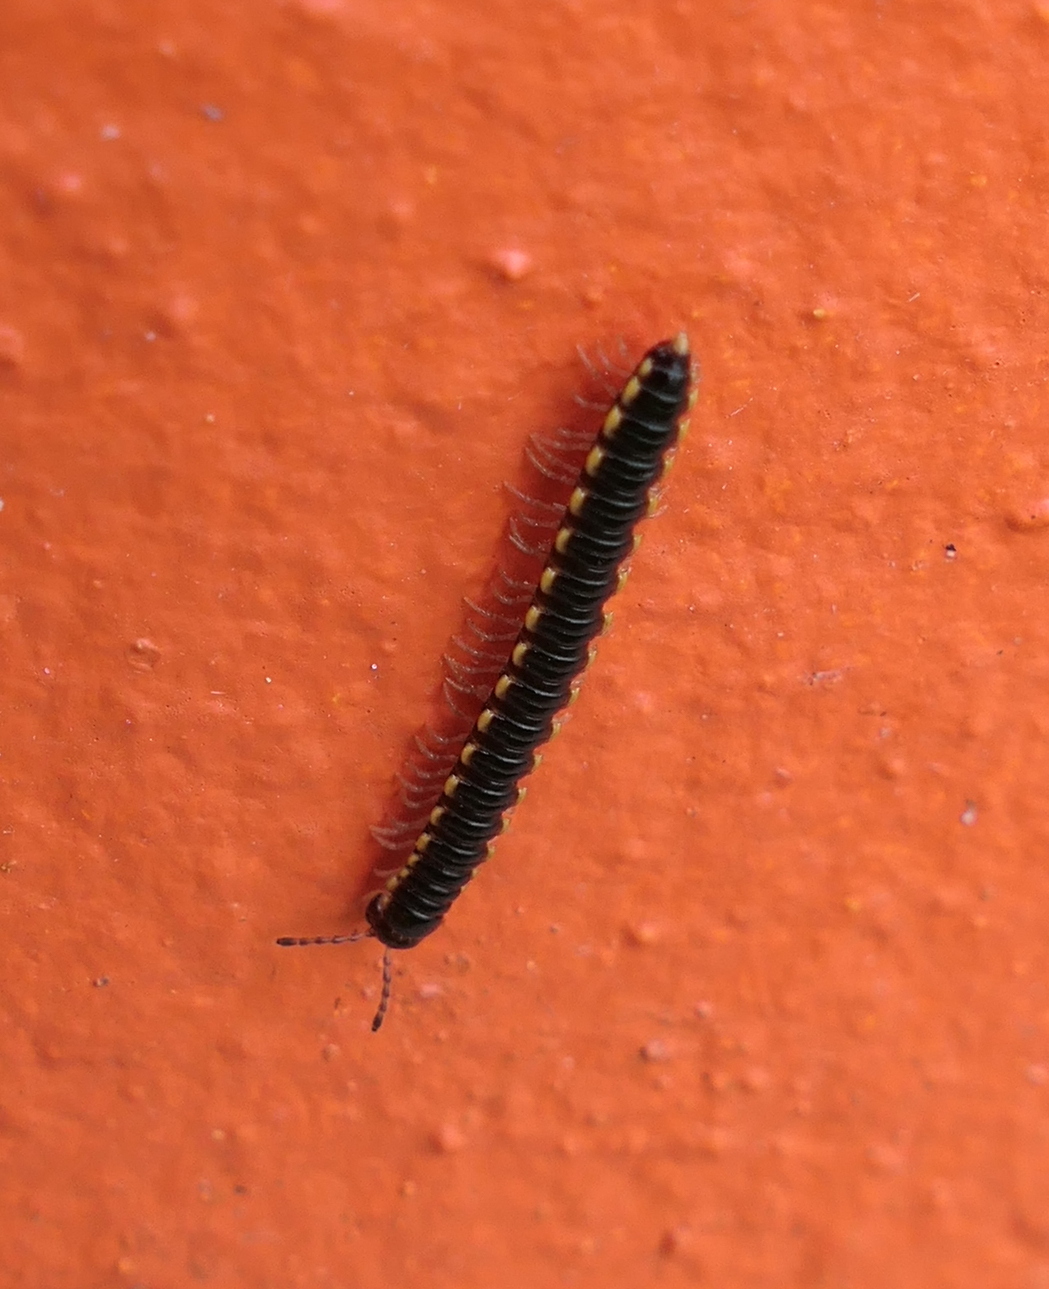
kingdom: Animalia
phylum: Arthropoda
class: Diplopoda
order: Polydesmida
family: Paradoxosomatidae
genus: Orthomorpha
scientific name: Orthomorpha coarctata
